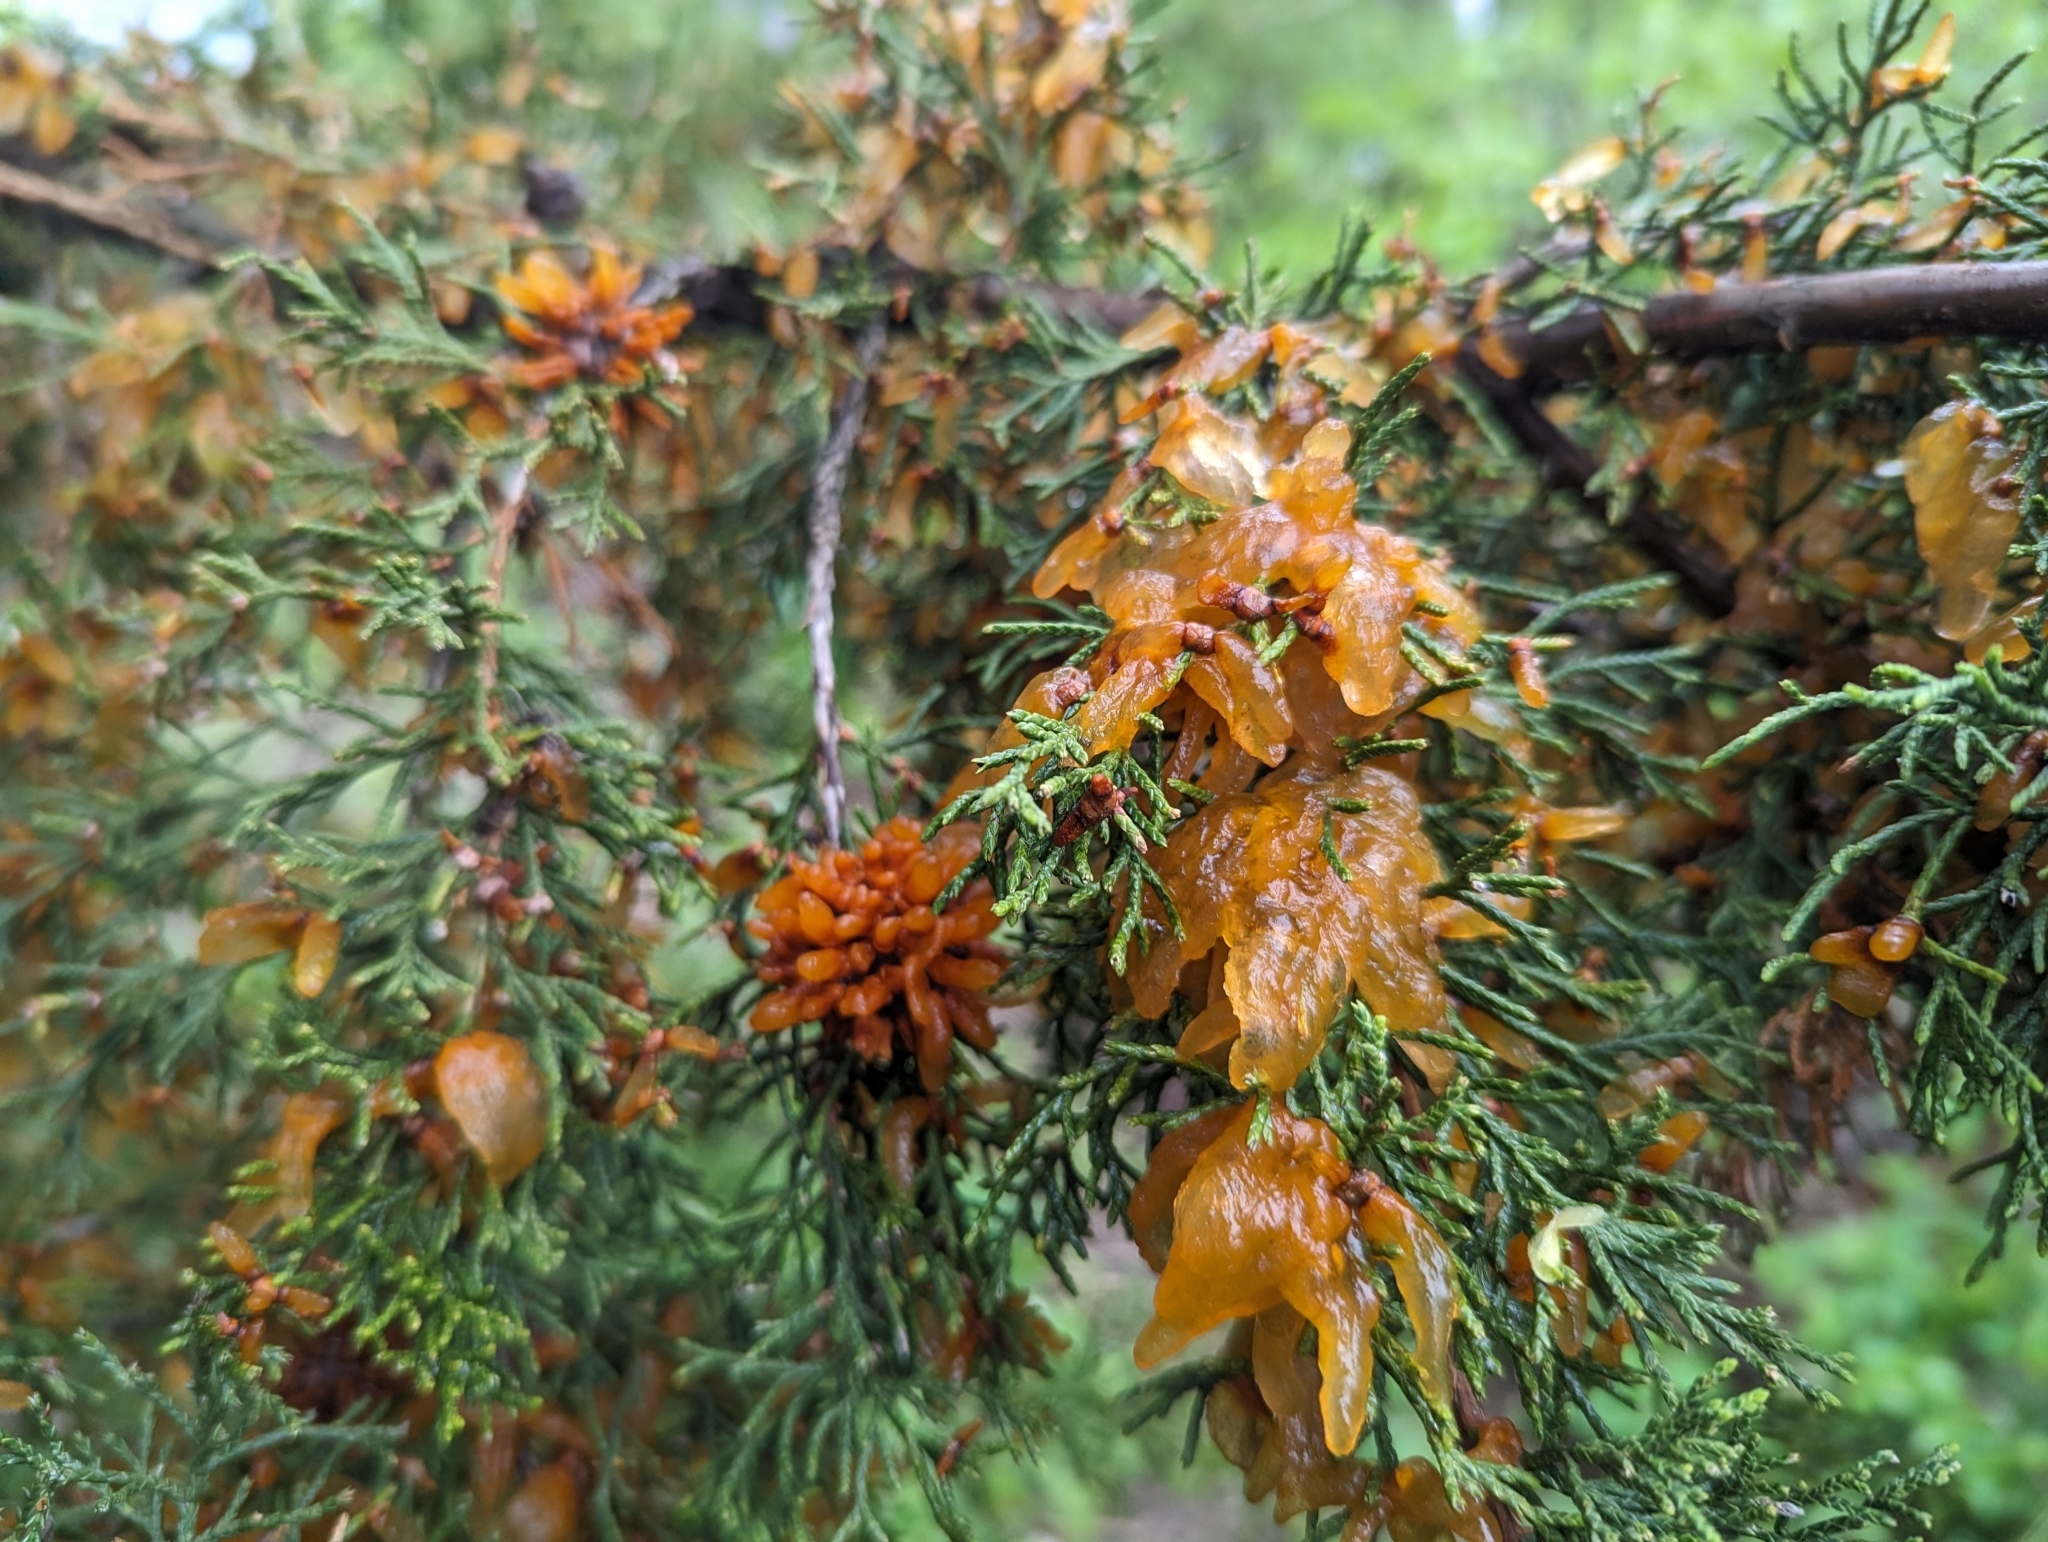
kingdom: Fungi
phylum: Basidiomycota
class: Pucciniomycetes
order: Pucciniales
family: Gymnosporangiaceae
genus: Gymnosporangium
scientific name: Gymnosporangium juniperi-virginianae
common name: Juniper-apple rust
